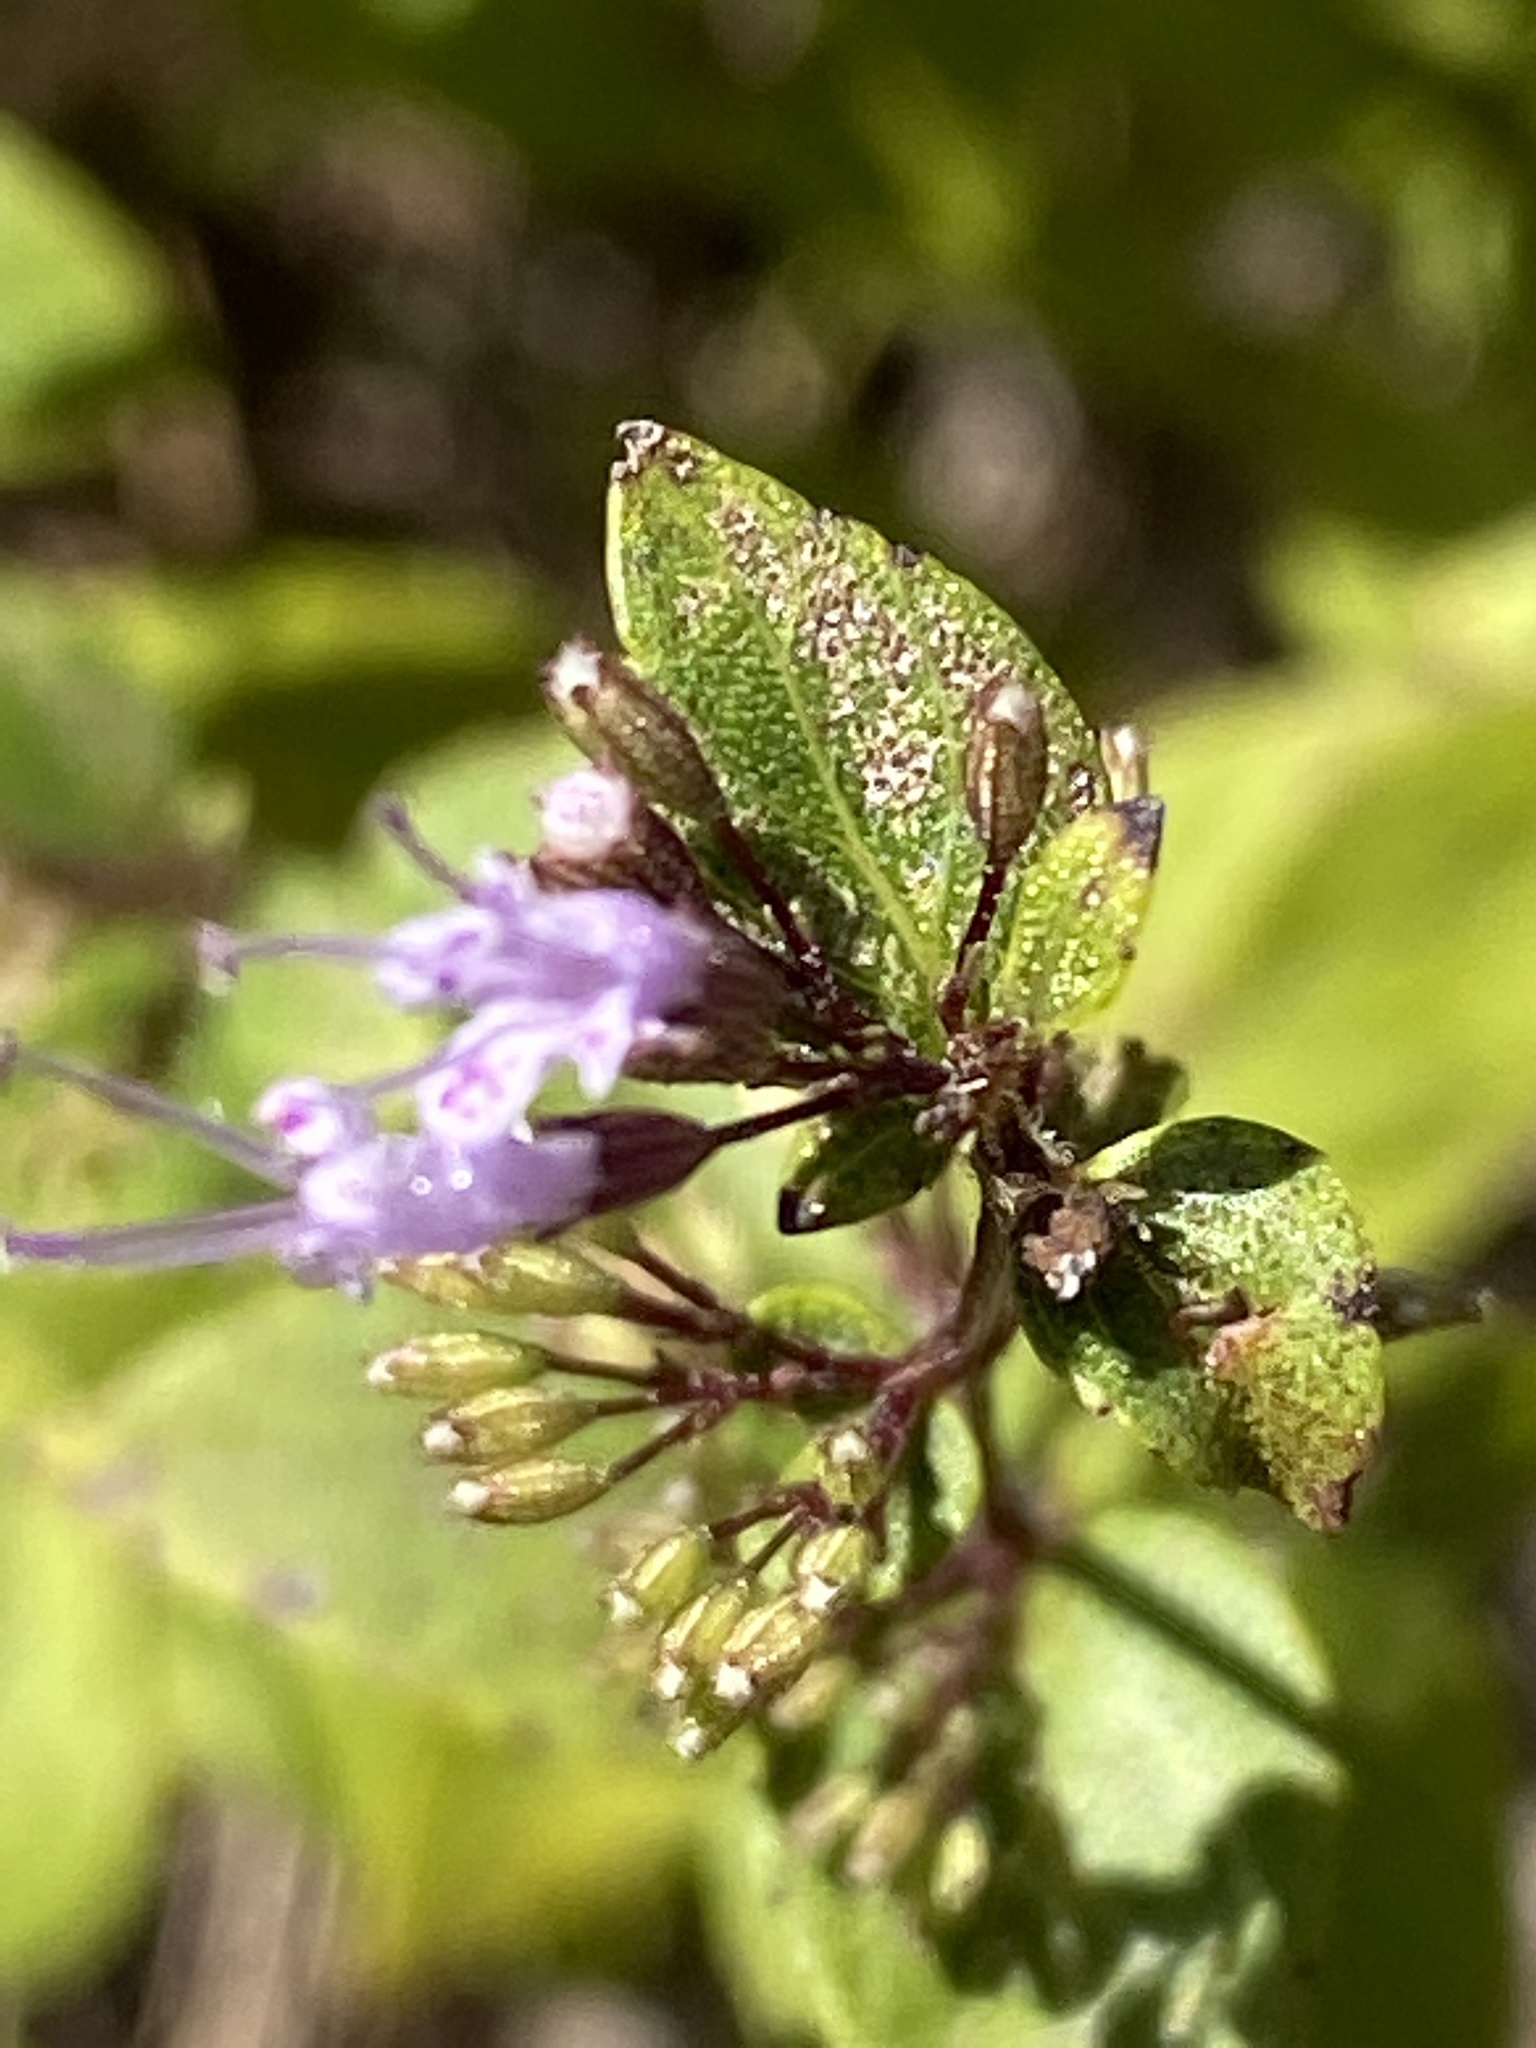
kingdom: Plantae
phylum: Tracheophyta
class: Magnoliopsida
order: Lamiales
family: Lamiaceae
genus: Cunila
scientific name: Cunila origanoides
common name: American dittany
